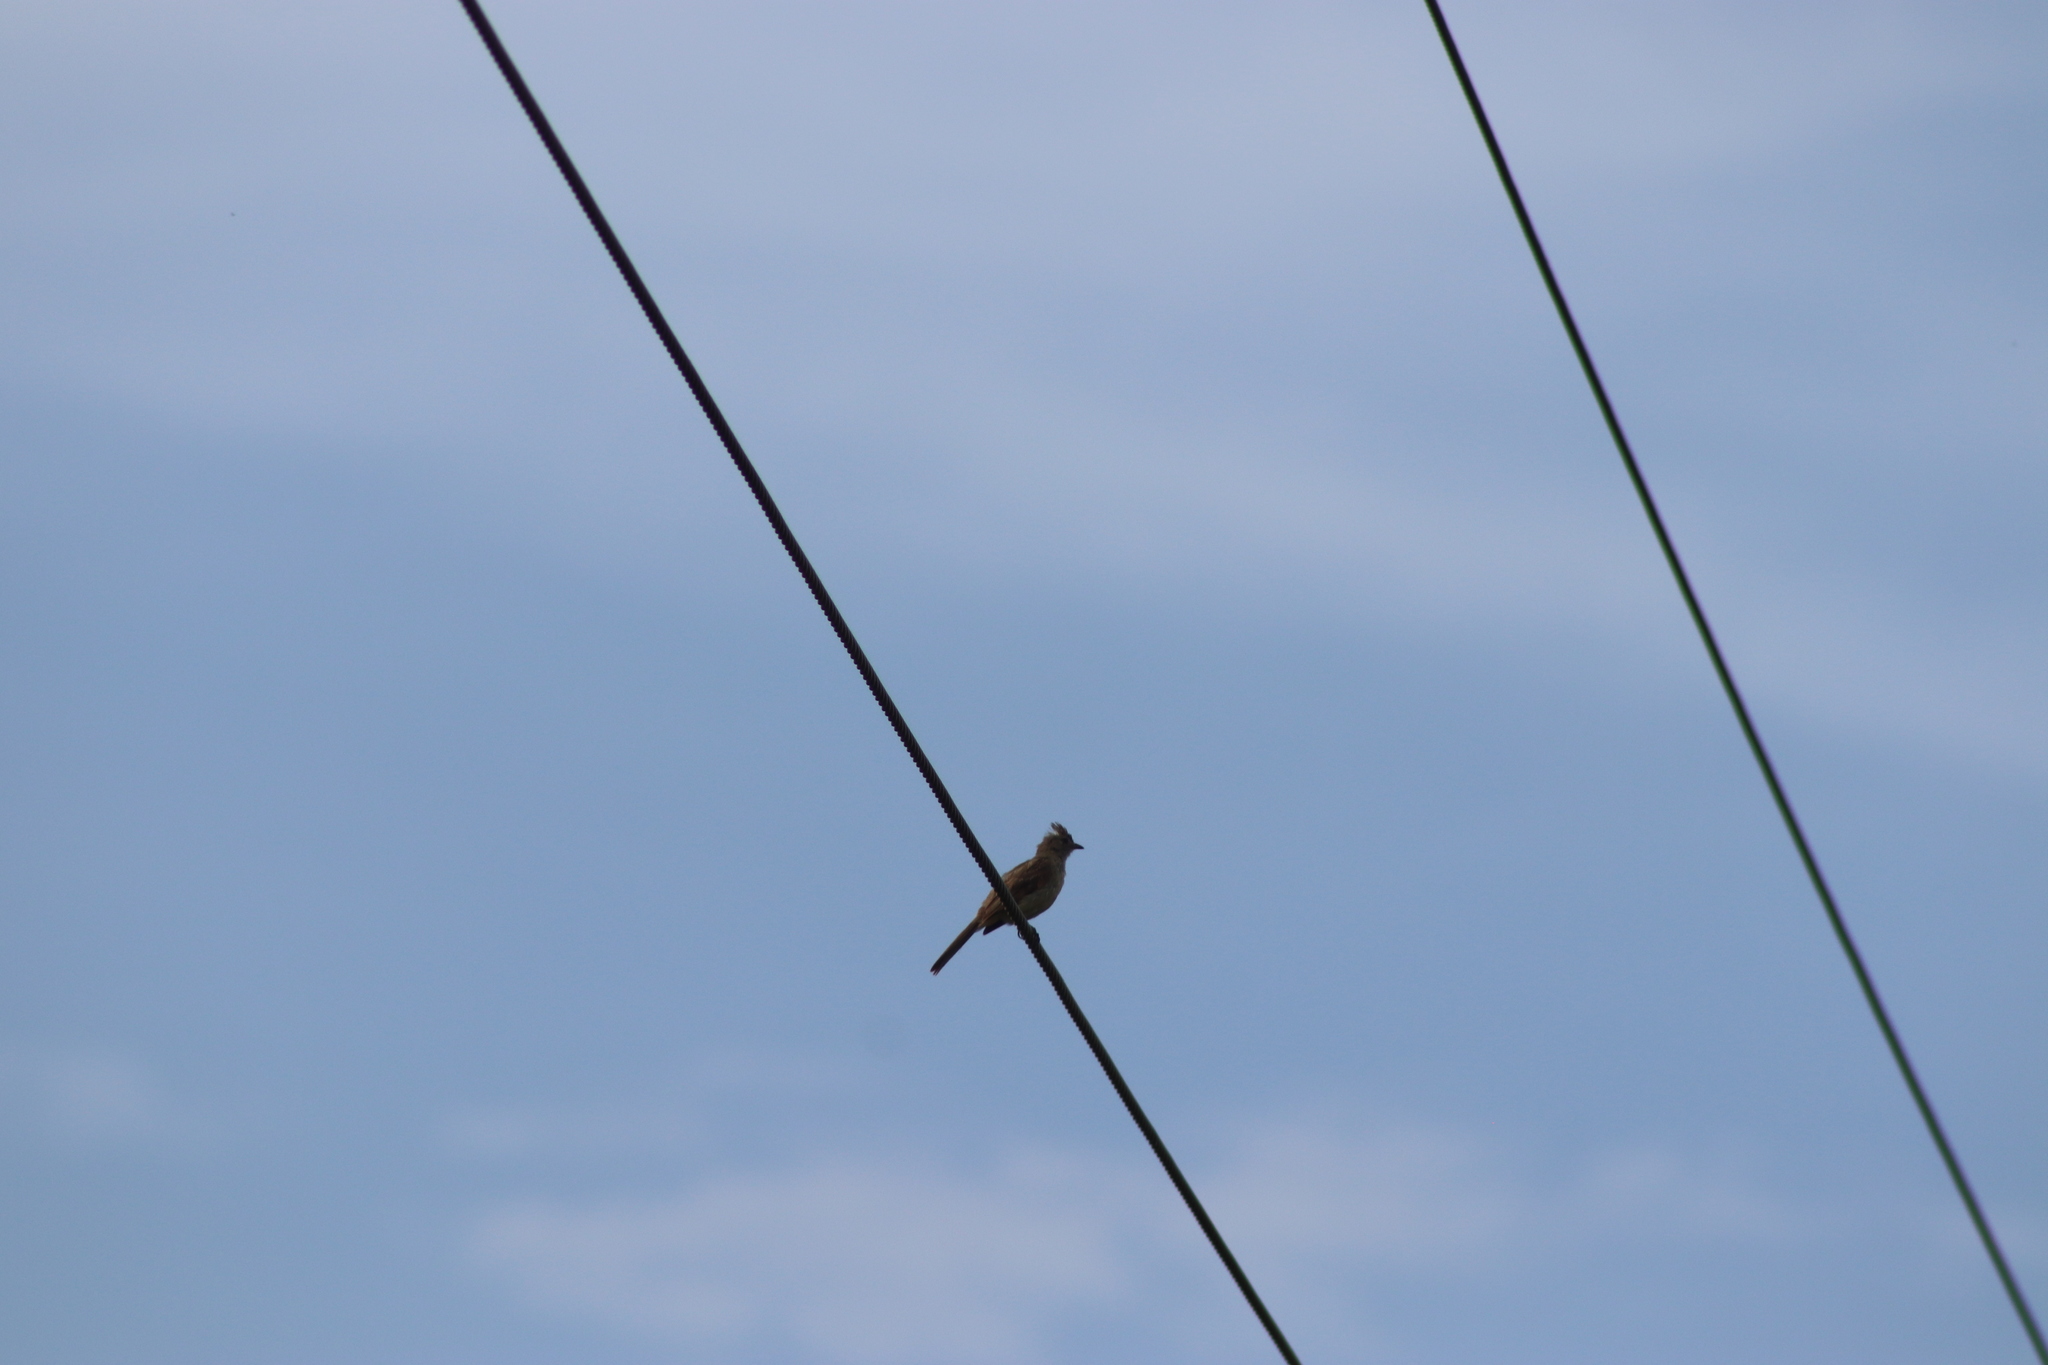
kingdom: Animalia
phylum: Chordata
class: Aves
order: Passeriformes
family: Tyrannidae
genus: Elaenia
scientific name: Elaenia flavogaster
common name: Yellow-bellied elaenia
